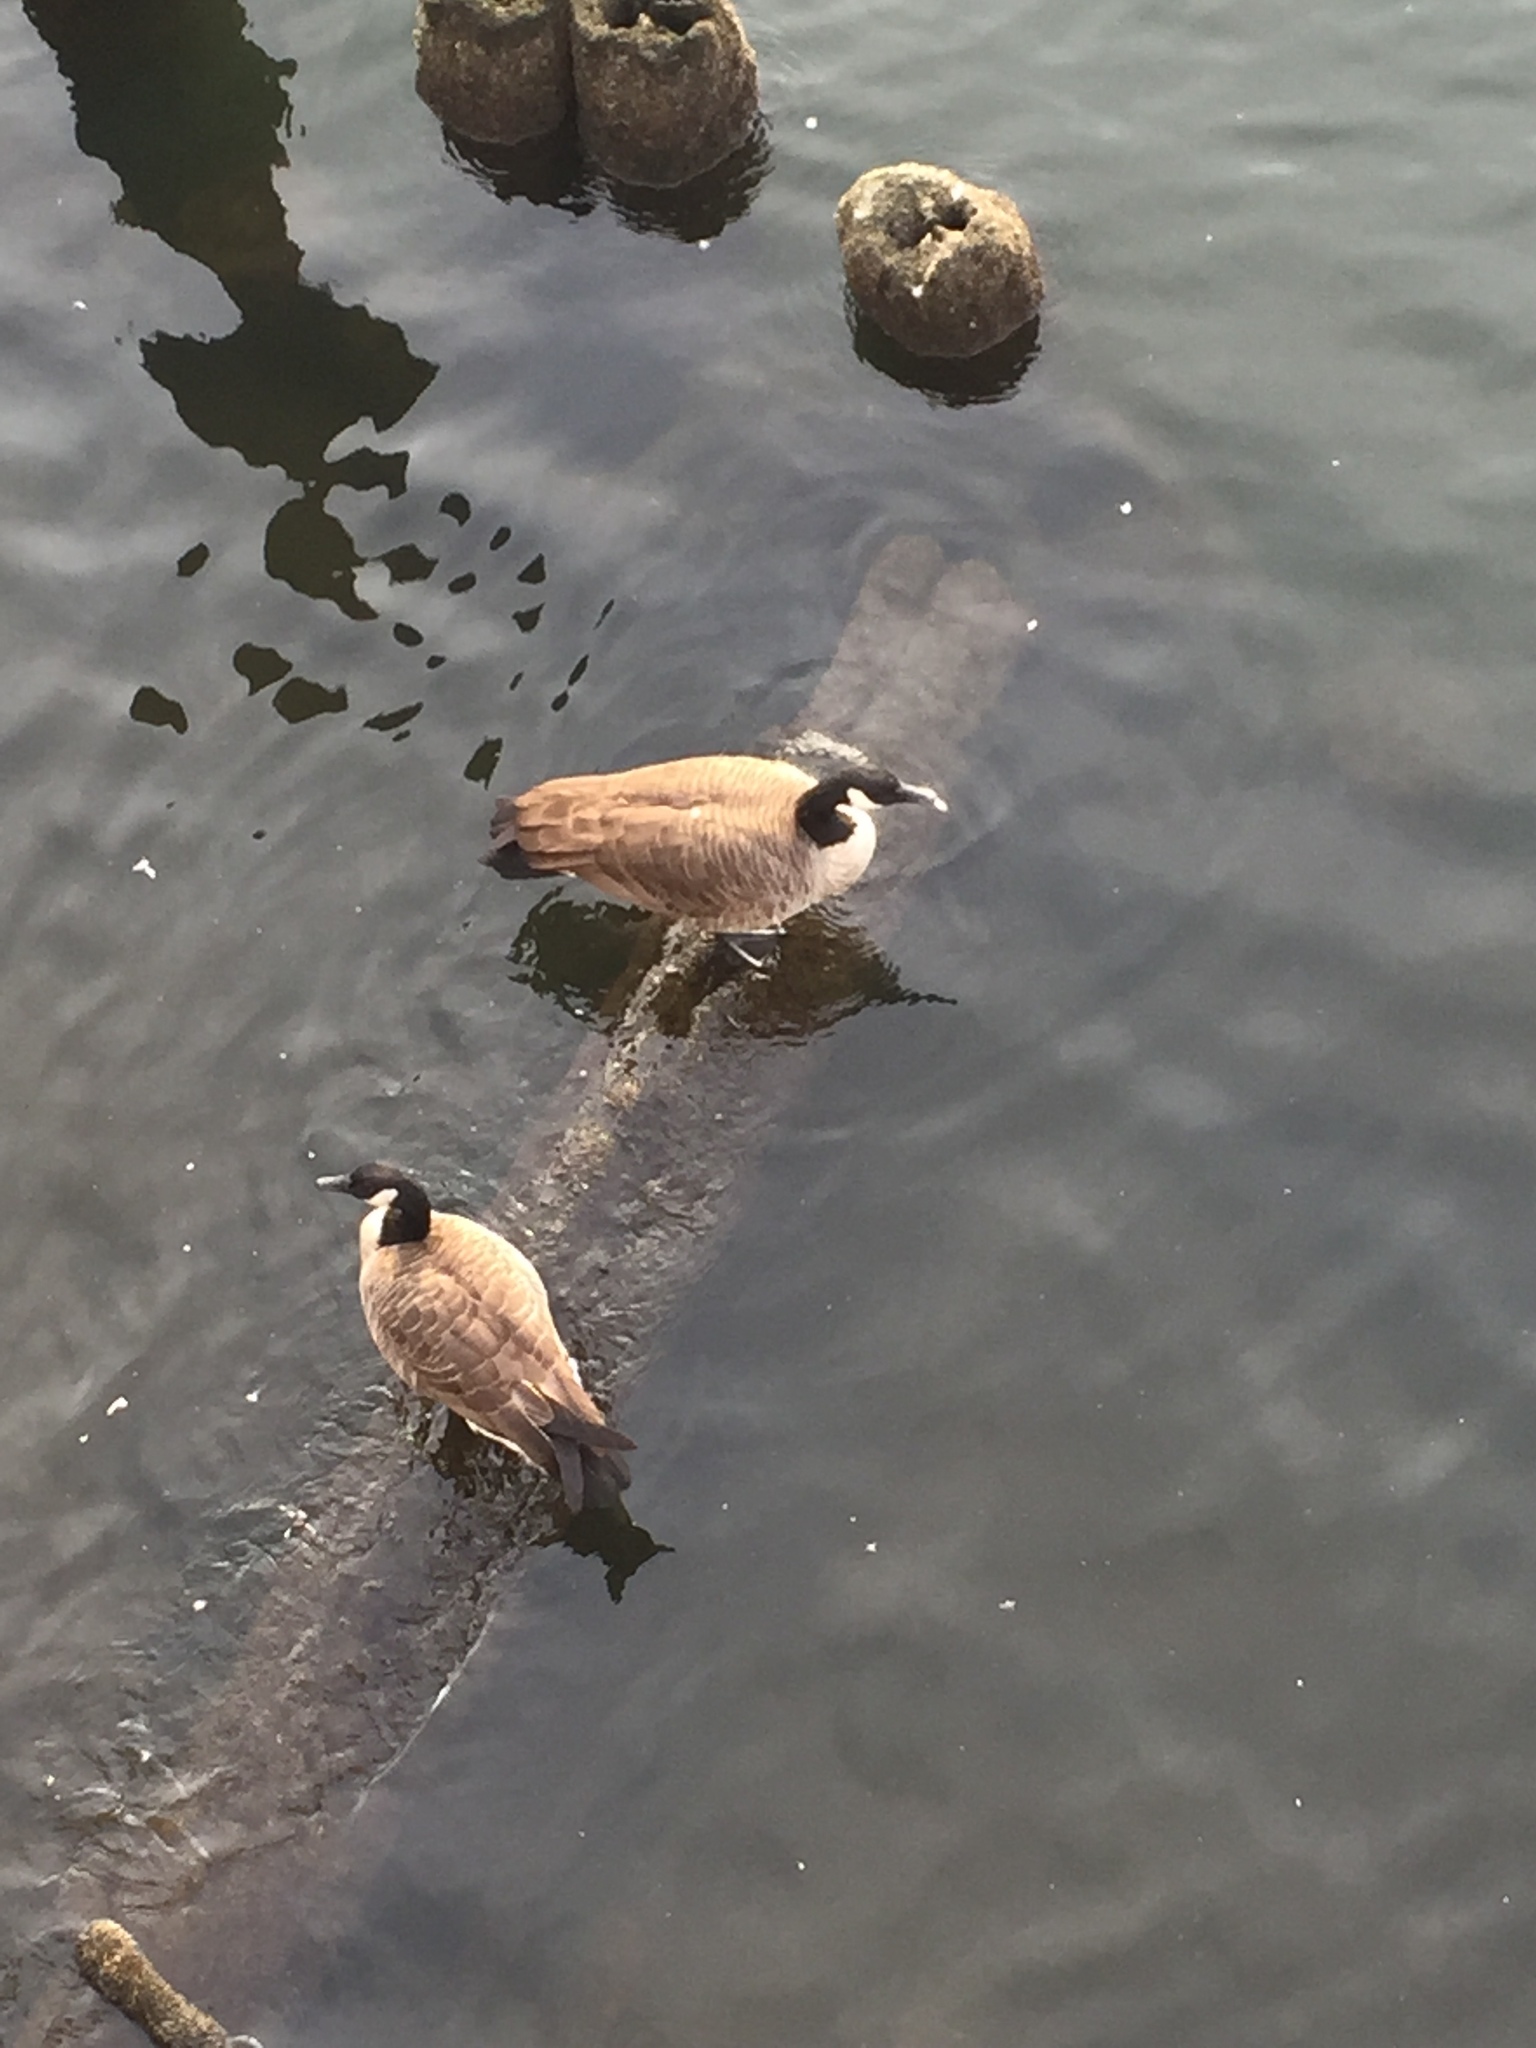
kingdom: Animalia
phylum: Chordata
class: Aves
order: Anseriformes
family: Anatidae
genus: Branta
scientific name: Branta canadensis
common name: Canada goose
